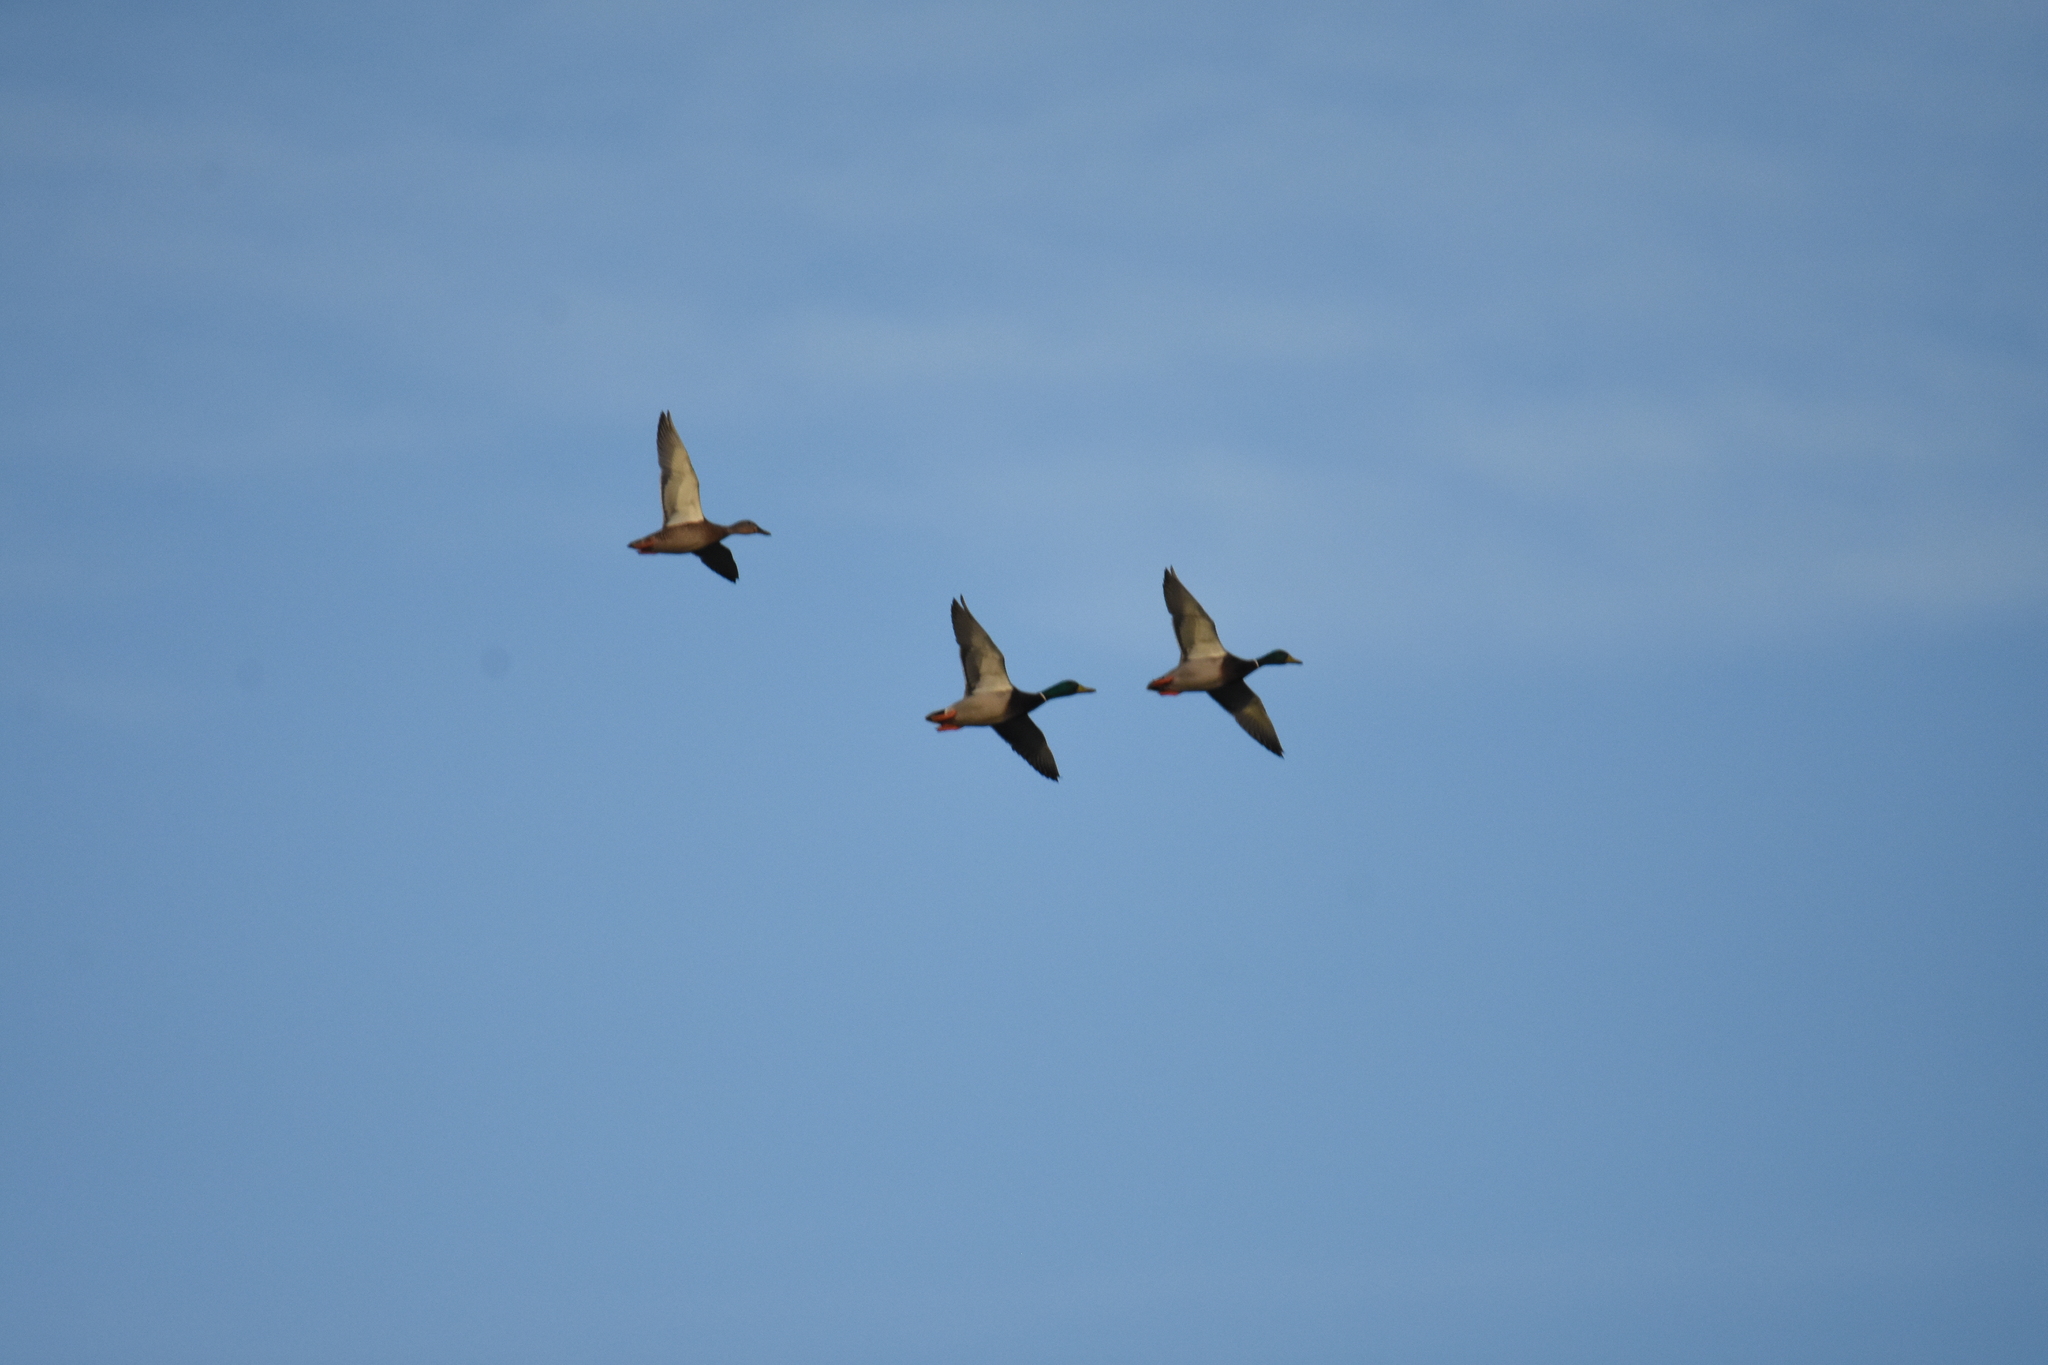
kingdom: Animalia
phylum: Chordata
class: Aves
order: Anseriformes
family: Anatidae
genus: Anas
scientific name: Anas platyrhynchos
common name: Mallard
